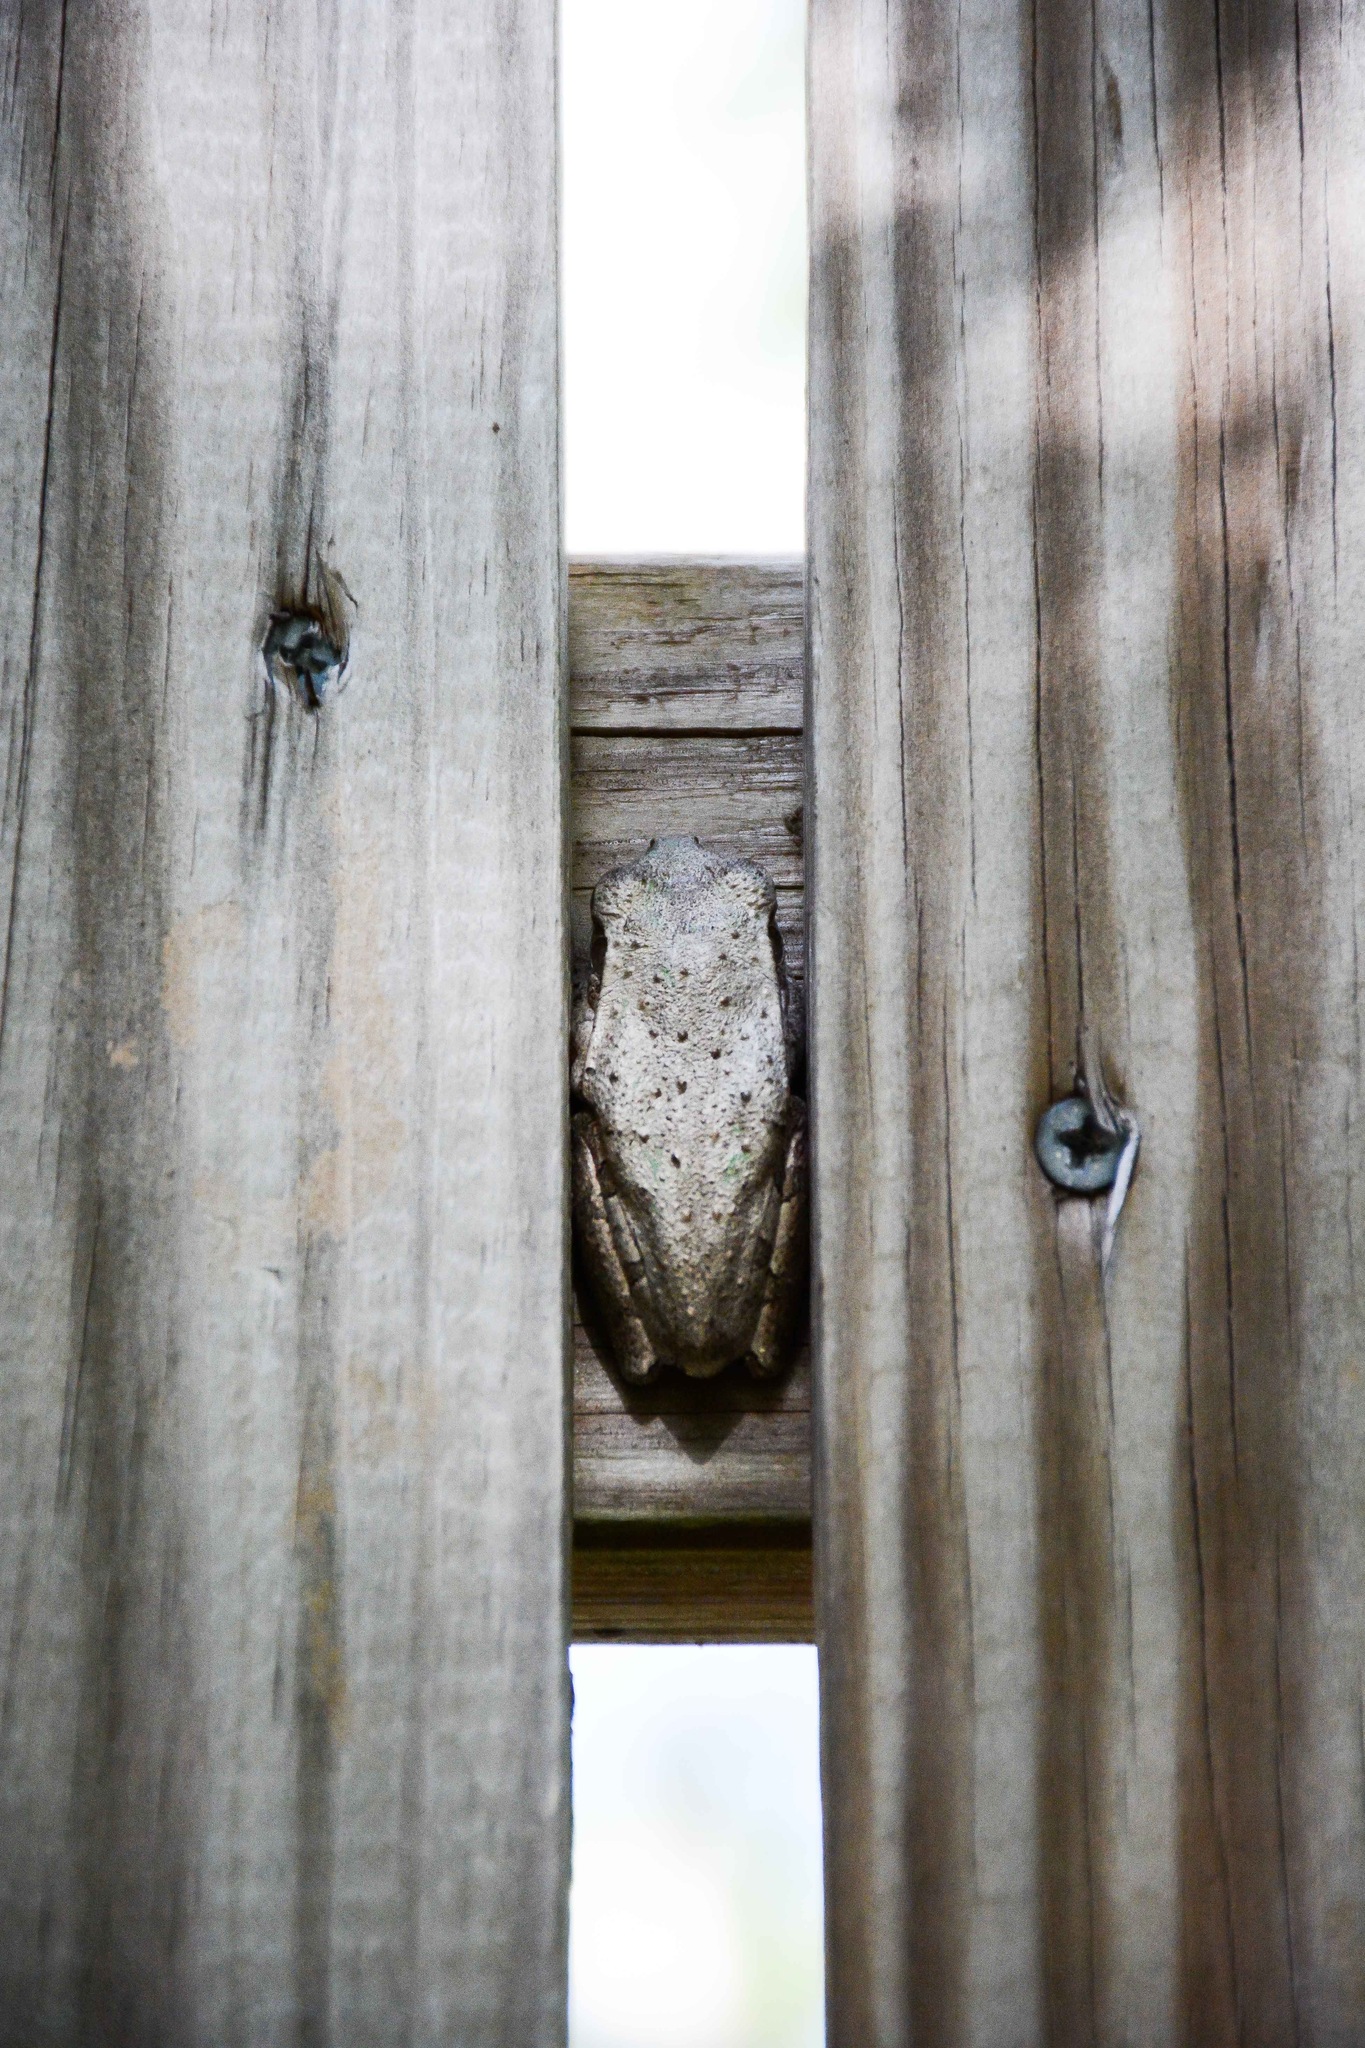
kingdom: Animalia
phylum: Chordata
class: Amphibia
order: Anura
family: Hylidae
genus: Osteopilus
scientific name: Osteopilus septentrionalis
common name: Cuban treefrog
